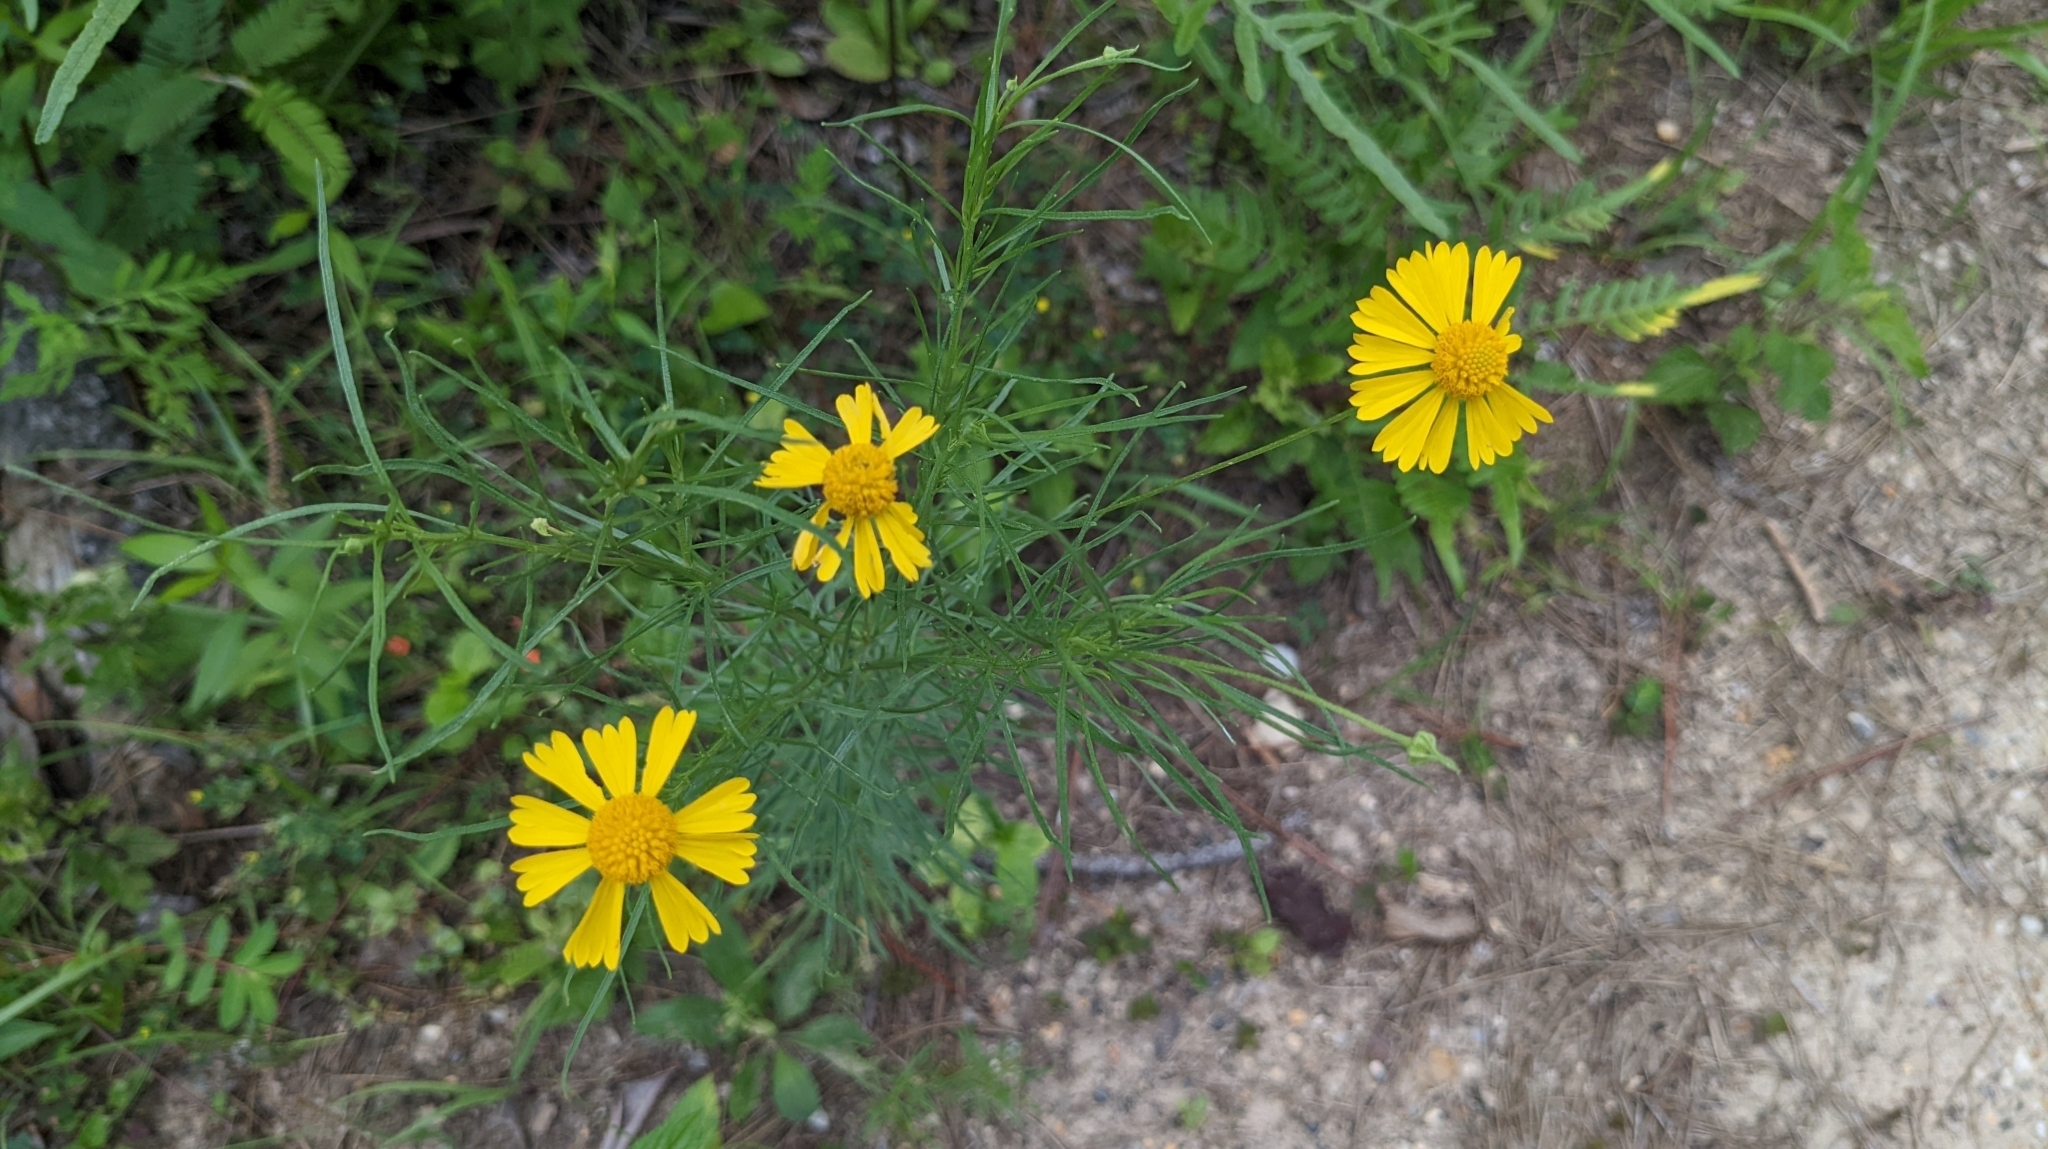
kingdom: Plantae
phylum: Tracheophyta
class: Magnoliopsida
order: Asterales
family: Asteraceae
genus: Helenium
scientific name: Helenium amarum
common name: Bitter sneezeweed
